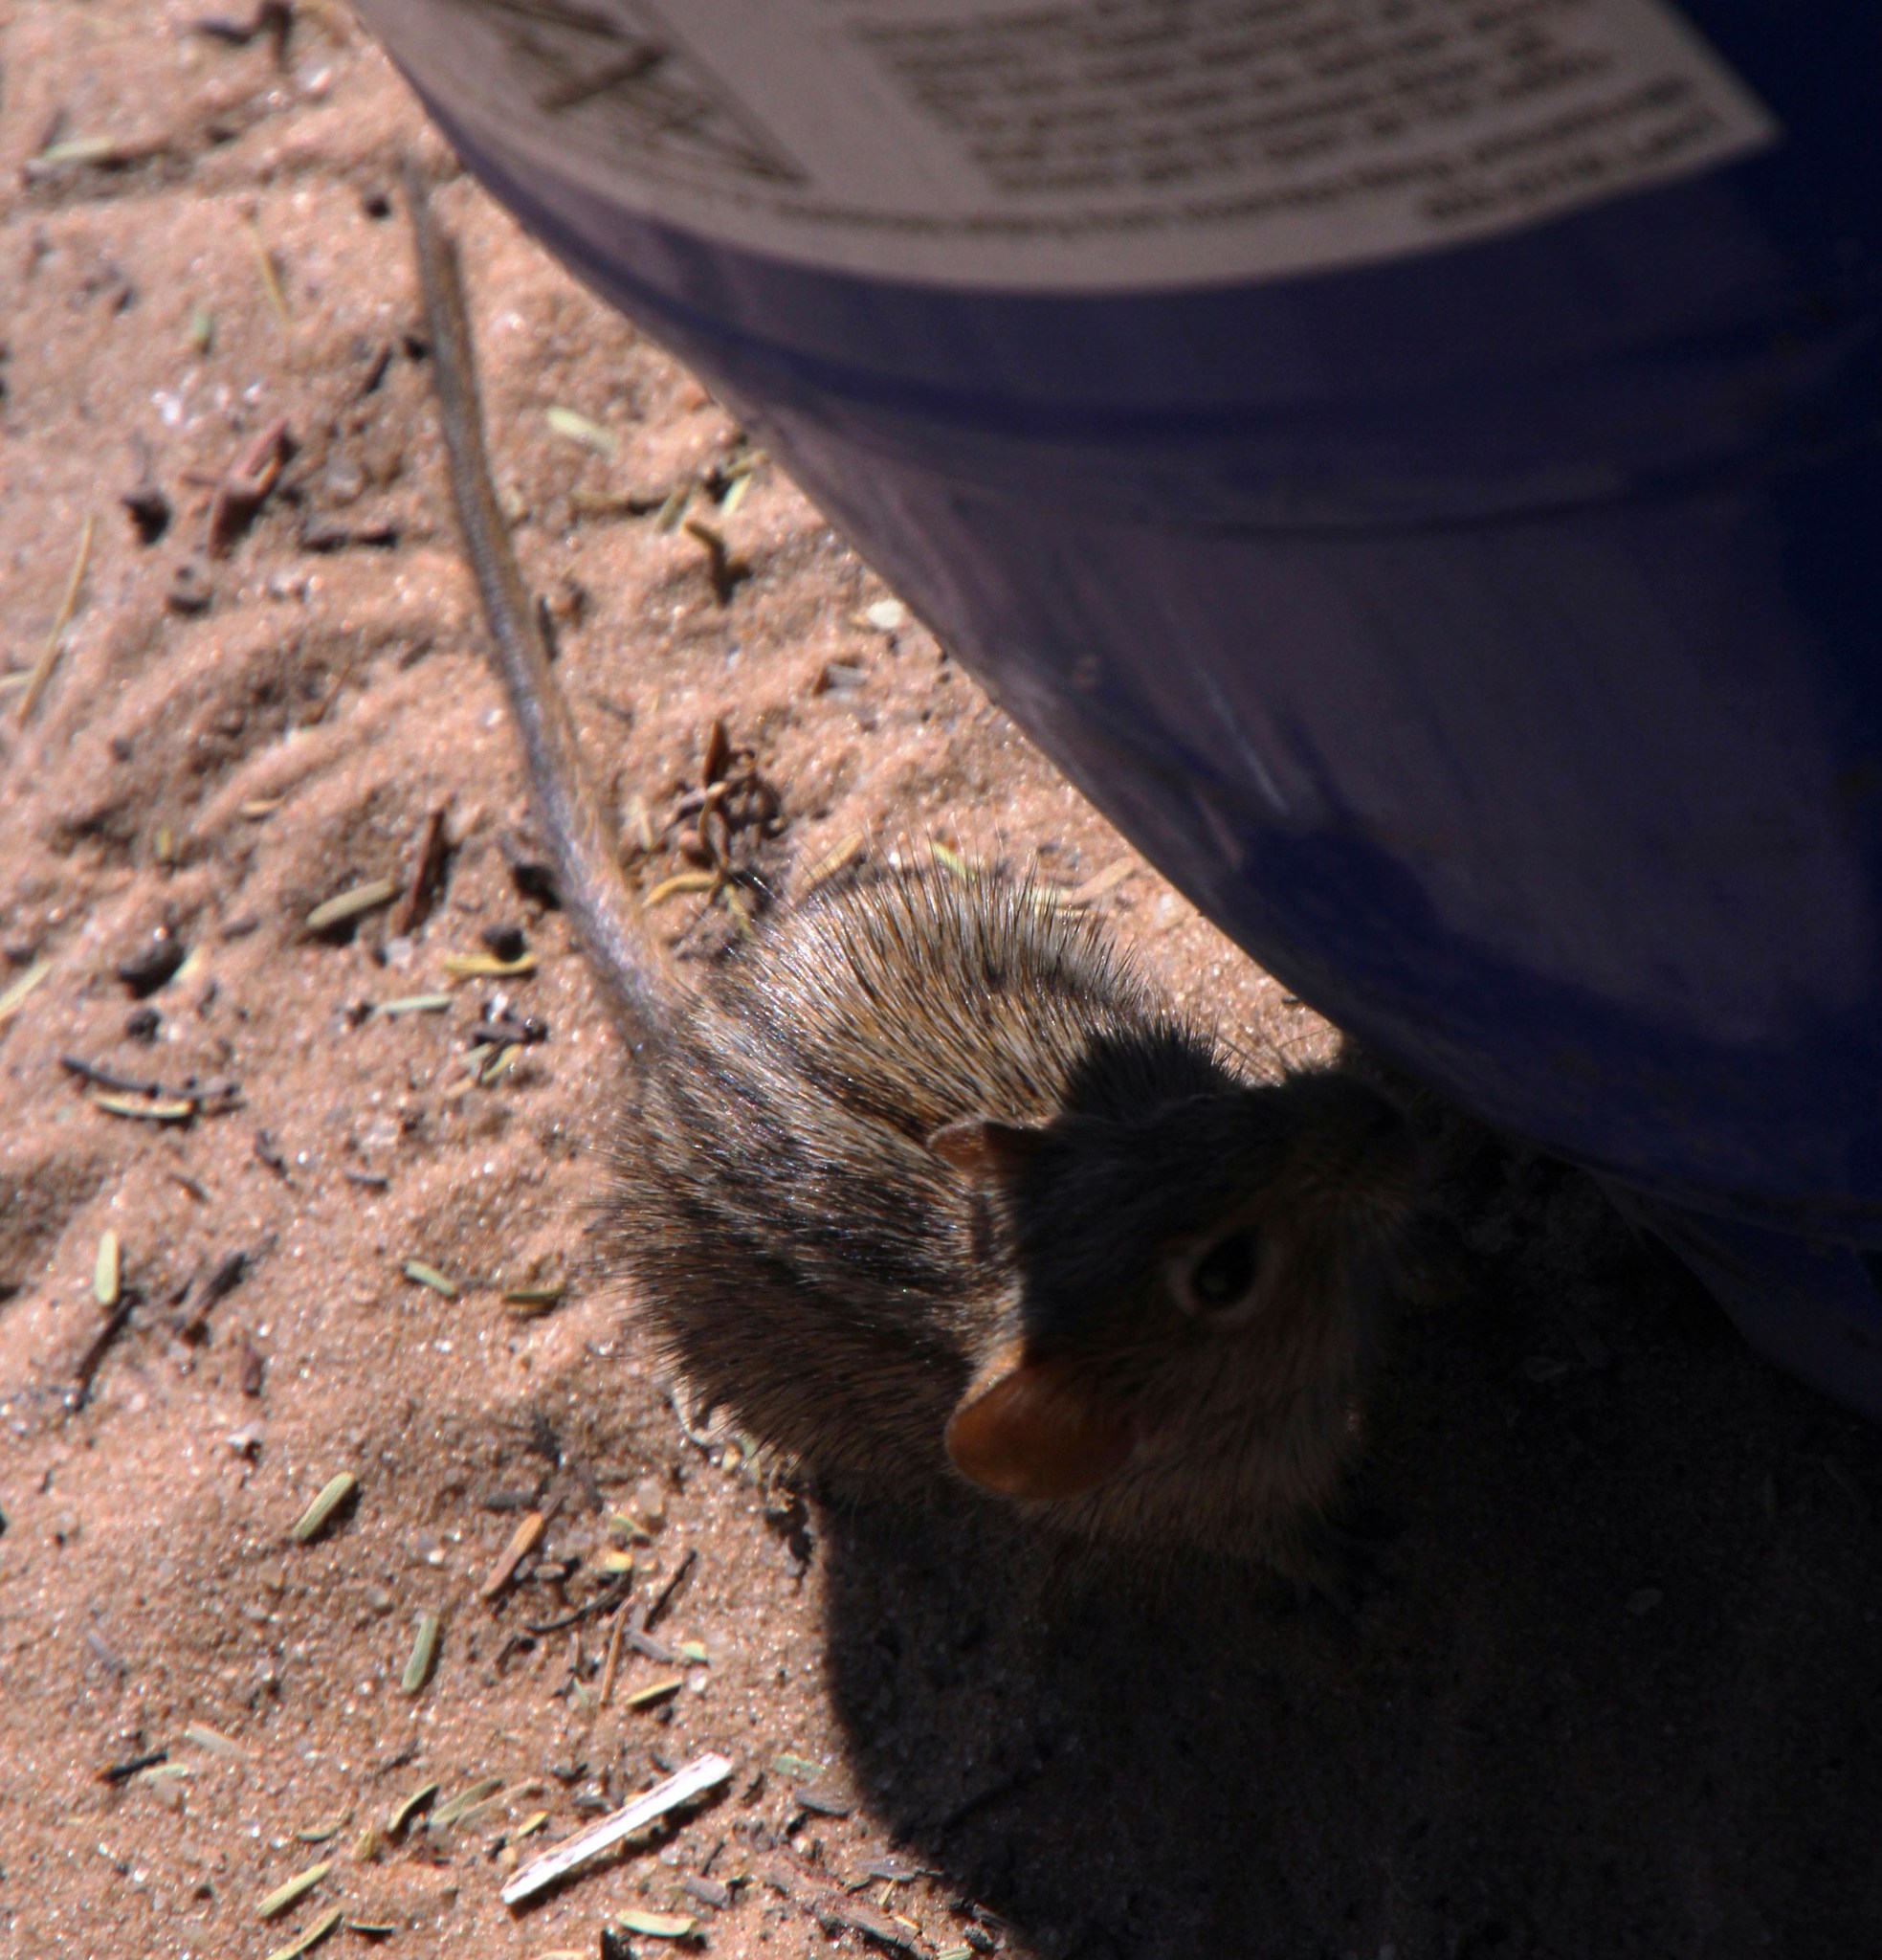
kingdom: Animalia
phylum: Chordata
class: Mammalia
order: Rodentia
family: Muridae
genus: Rhabdomys
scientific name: Rhabdomys pumilio
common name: Xeric four-striped grass rat
